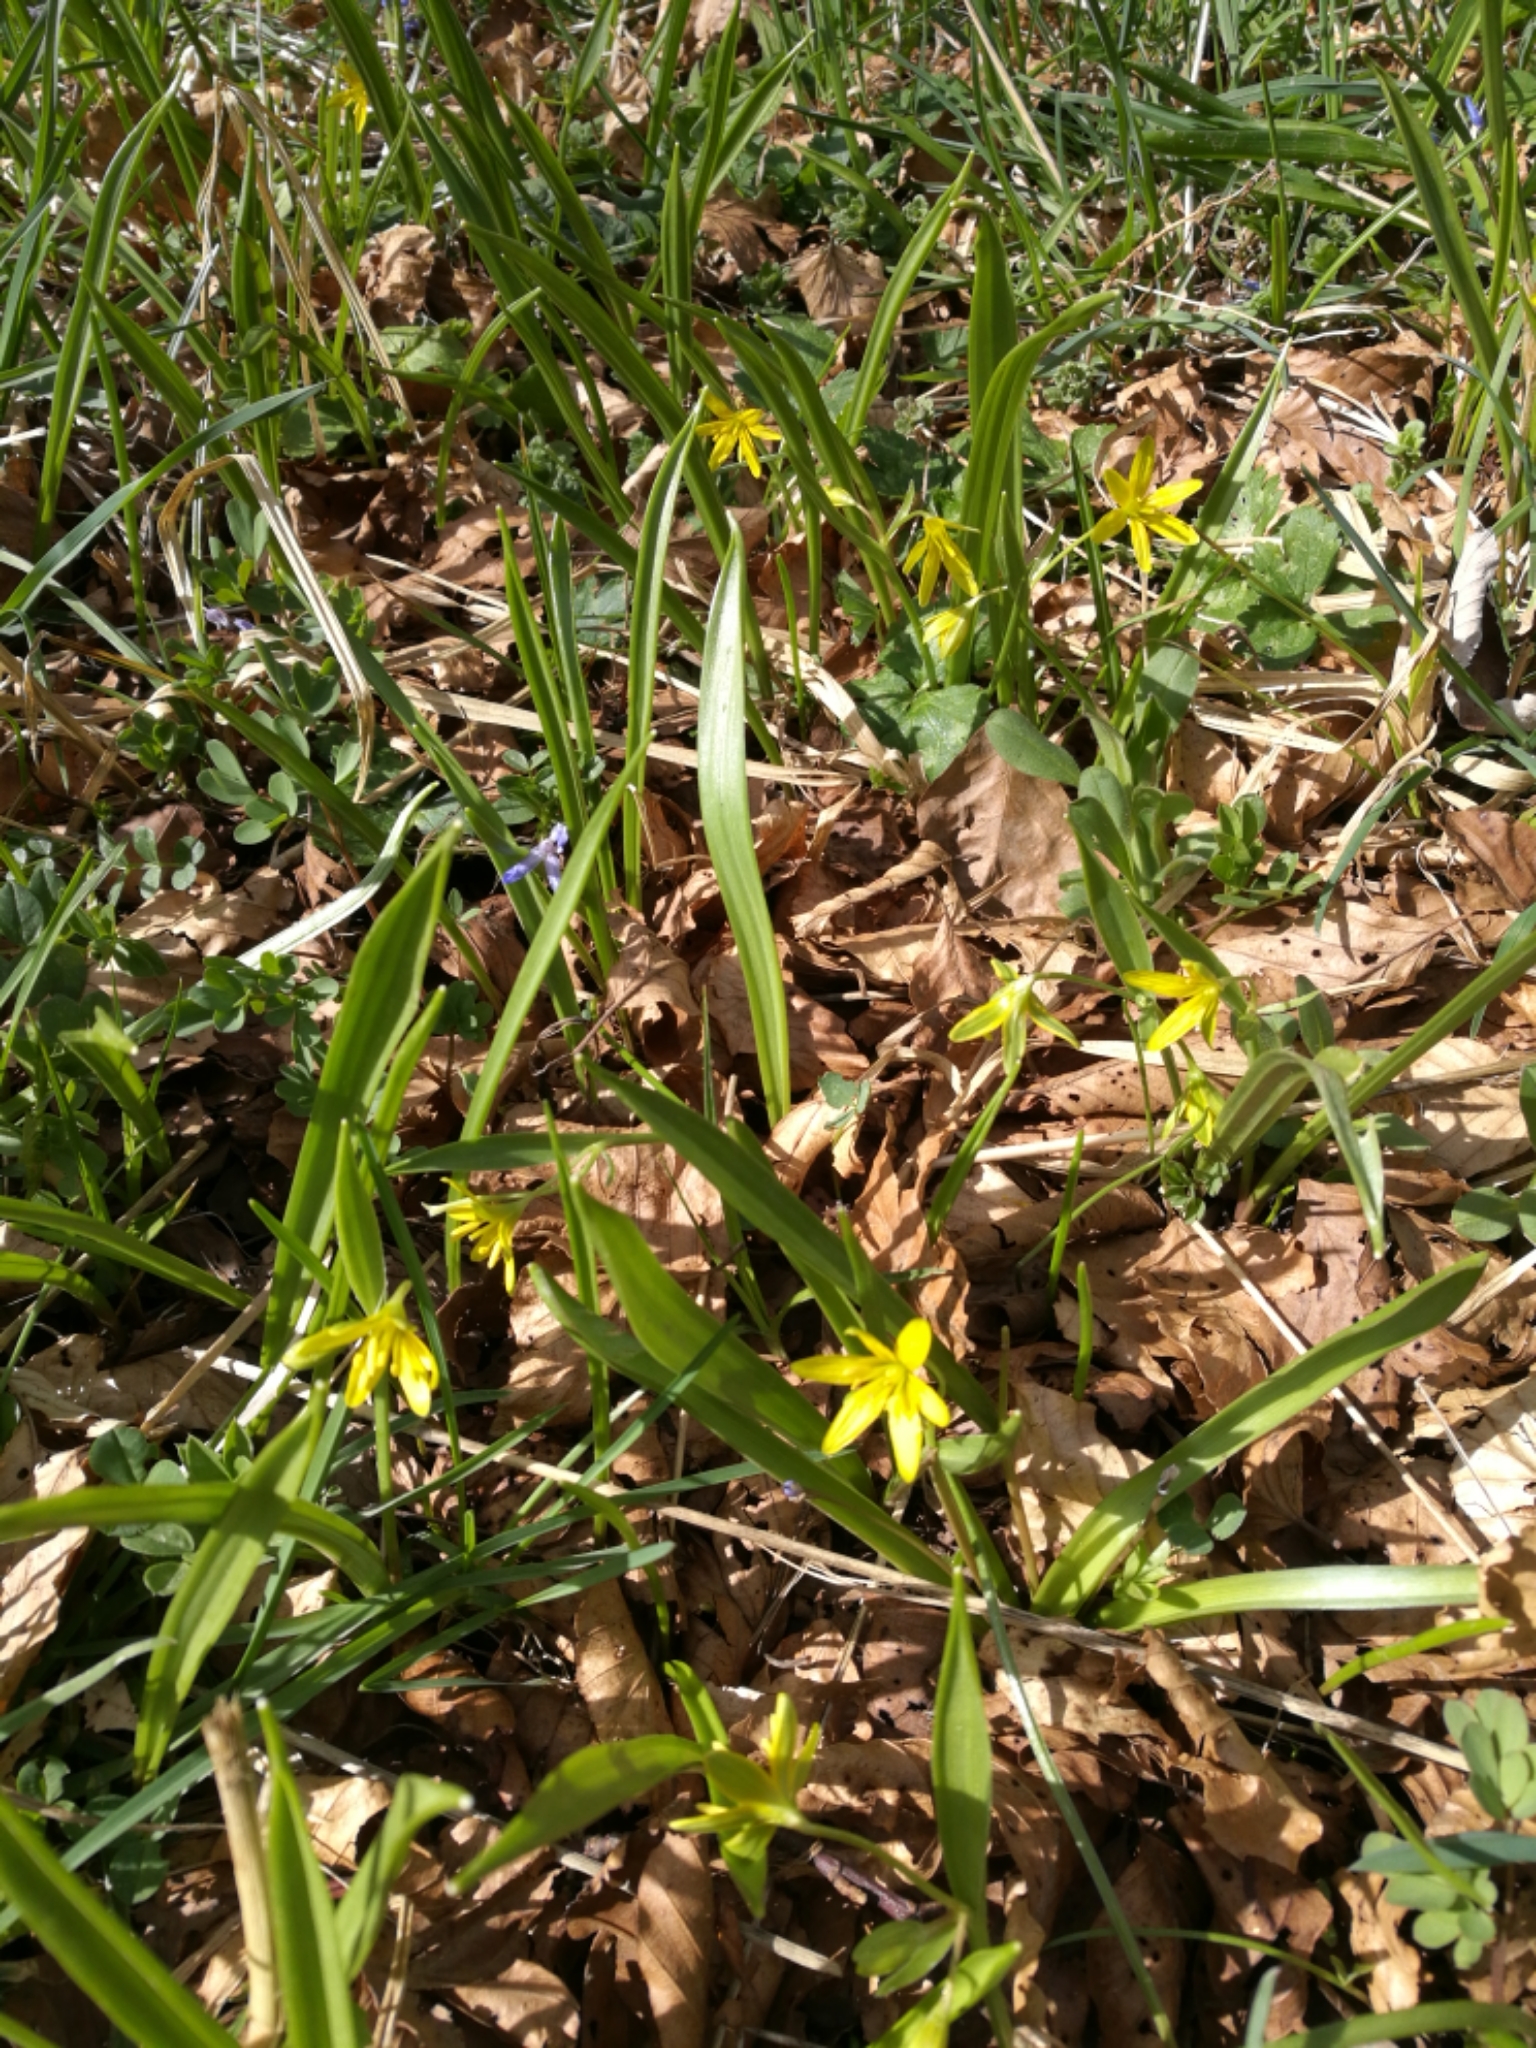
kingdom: Plantae
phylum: Tracheophyta
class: Liliopsida
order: Liliales
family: Liliaceae
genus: Gagea
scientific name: Gagea lutea
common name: Yellow star-of-bethlehem
